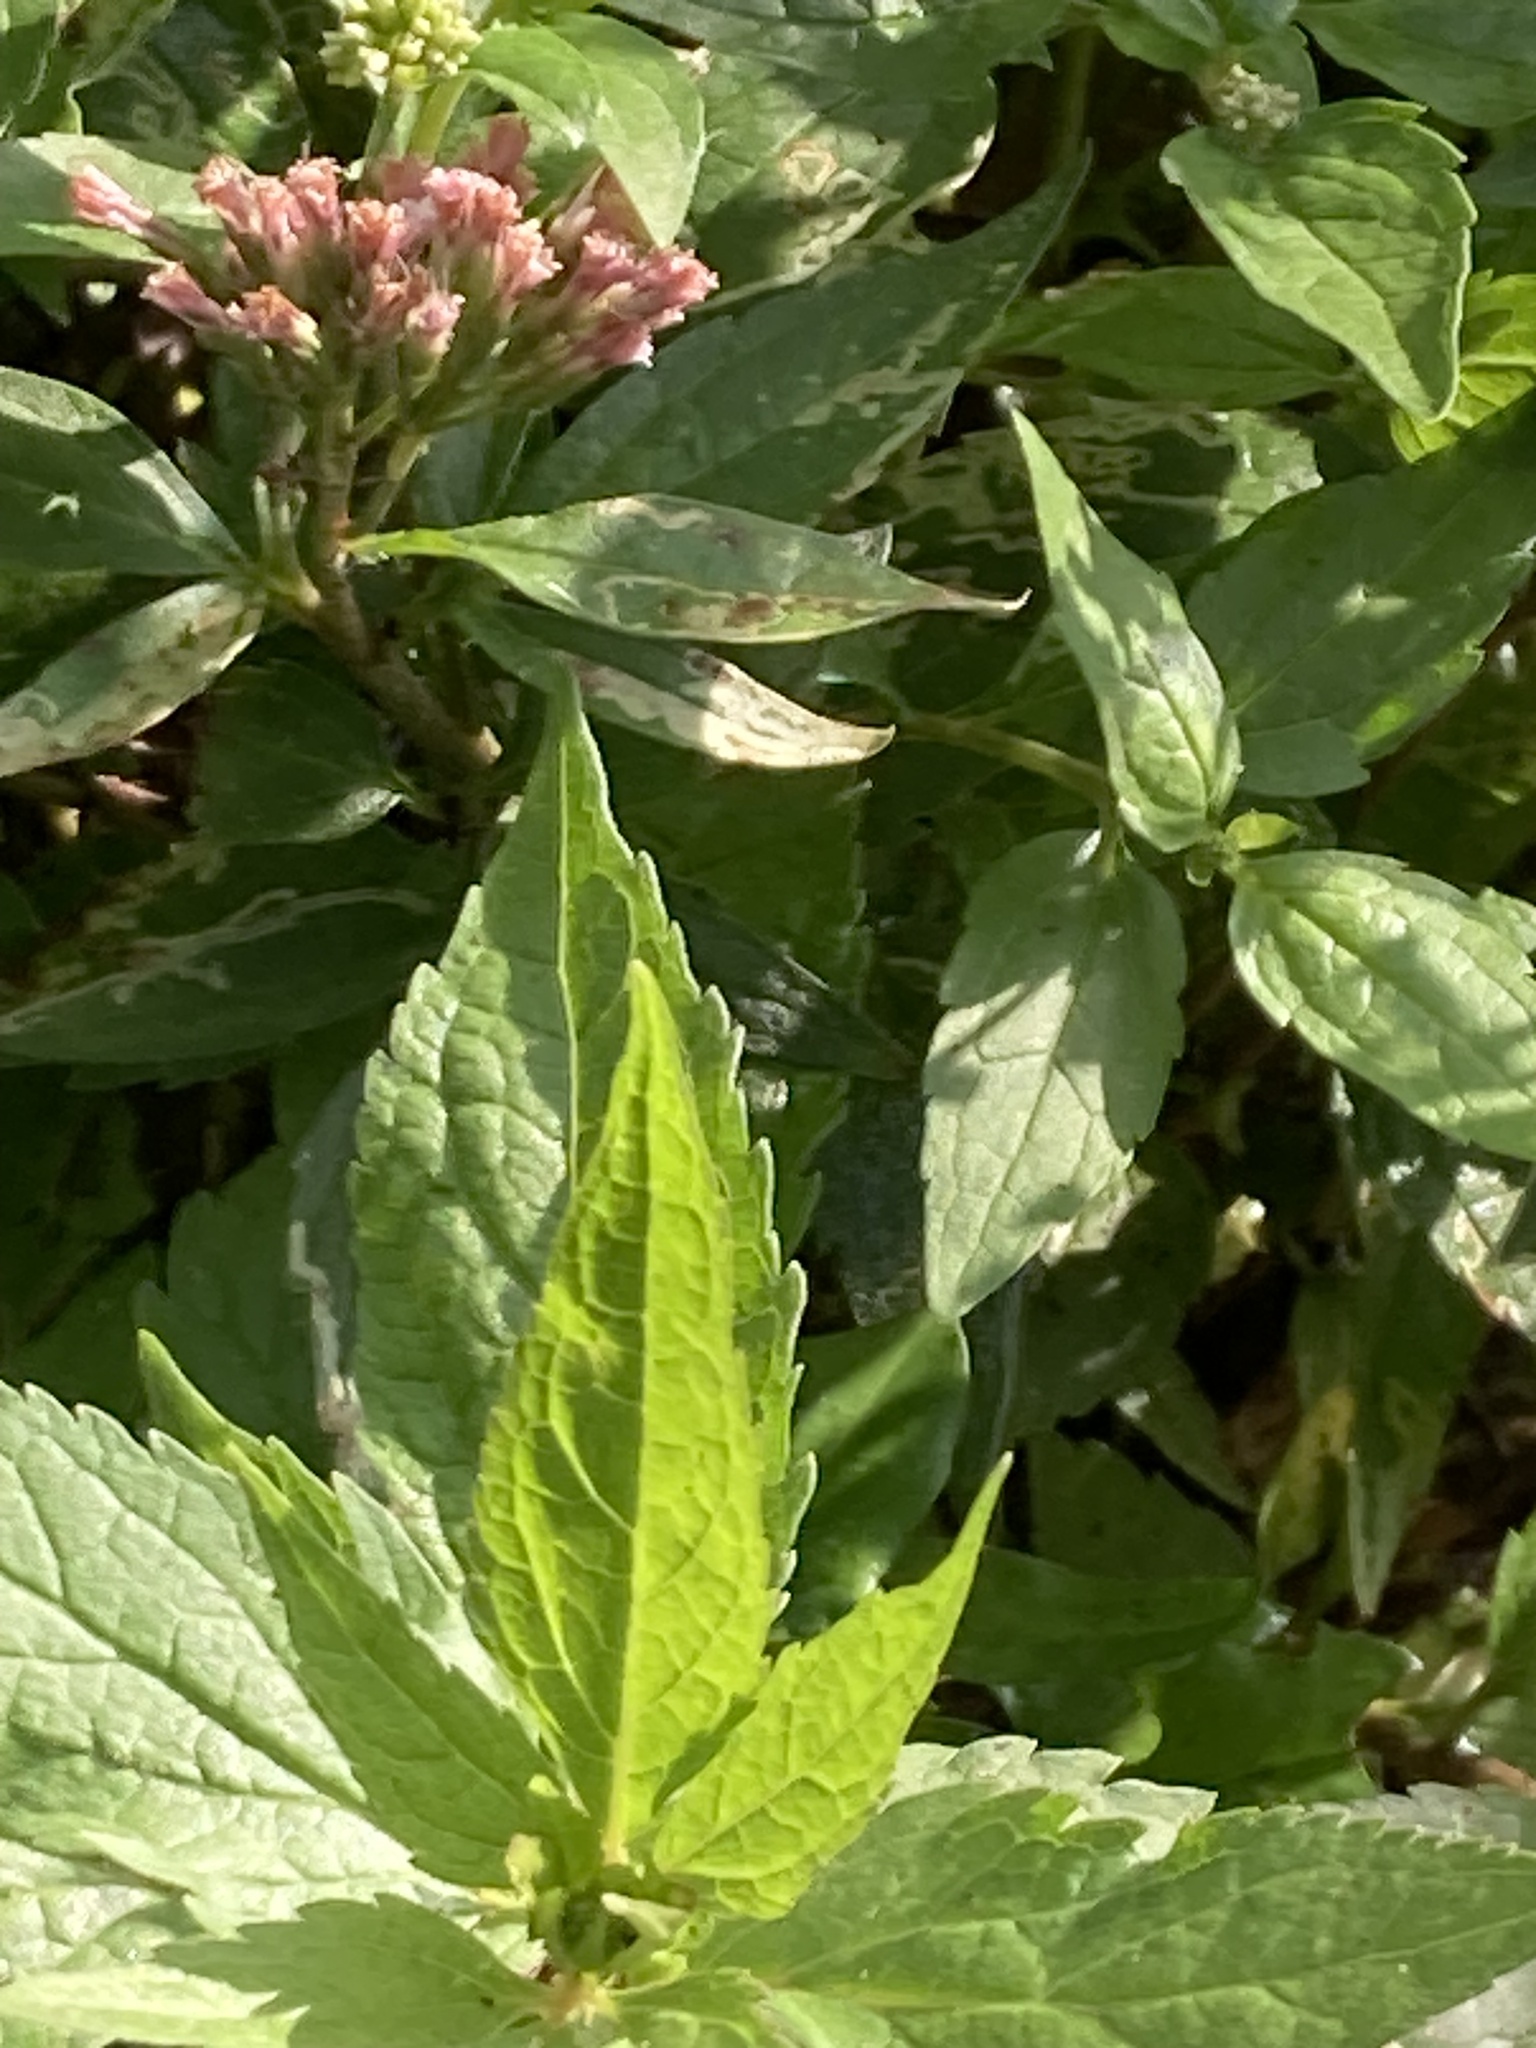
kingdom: Plantae
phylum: Tracheophyta
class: Magnoliopsida
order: Asterales
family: Asteraceae
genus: Eupatorium
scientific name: Eupatorium cannabinum
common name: Hemp-agrimony
